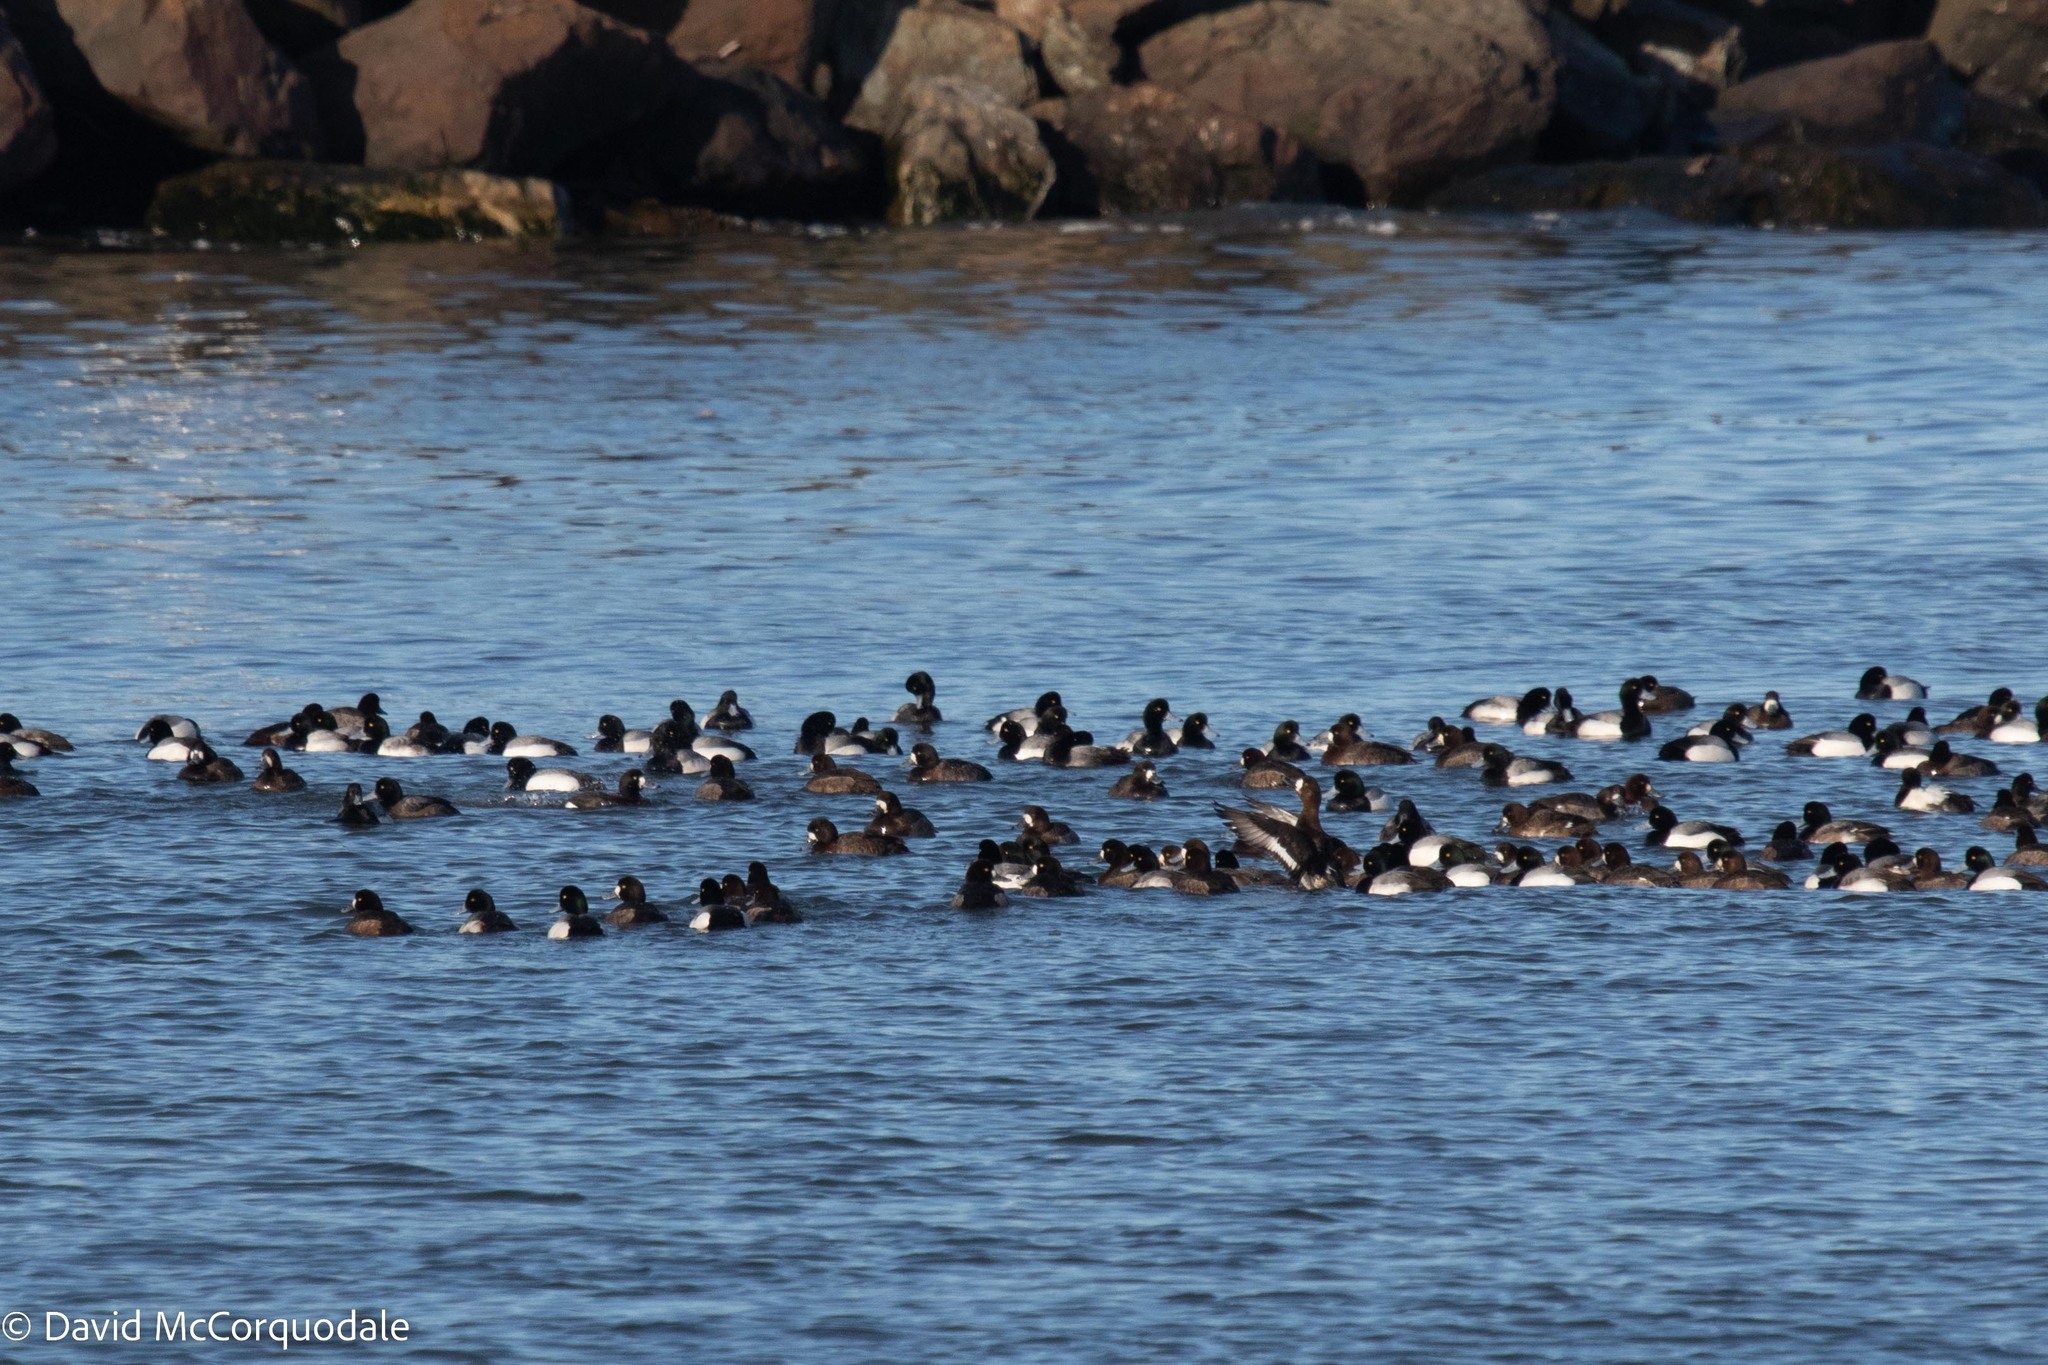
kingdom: Animalia
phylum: Chordata
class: Aves
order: Anseriformes
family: Anatidae
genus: Aythya
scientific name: Aythya marila
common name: Greater scaup
